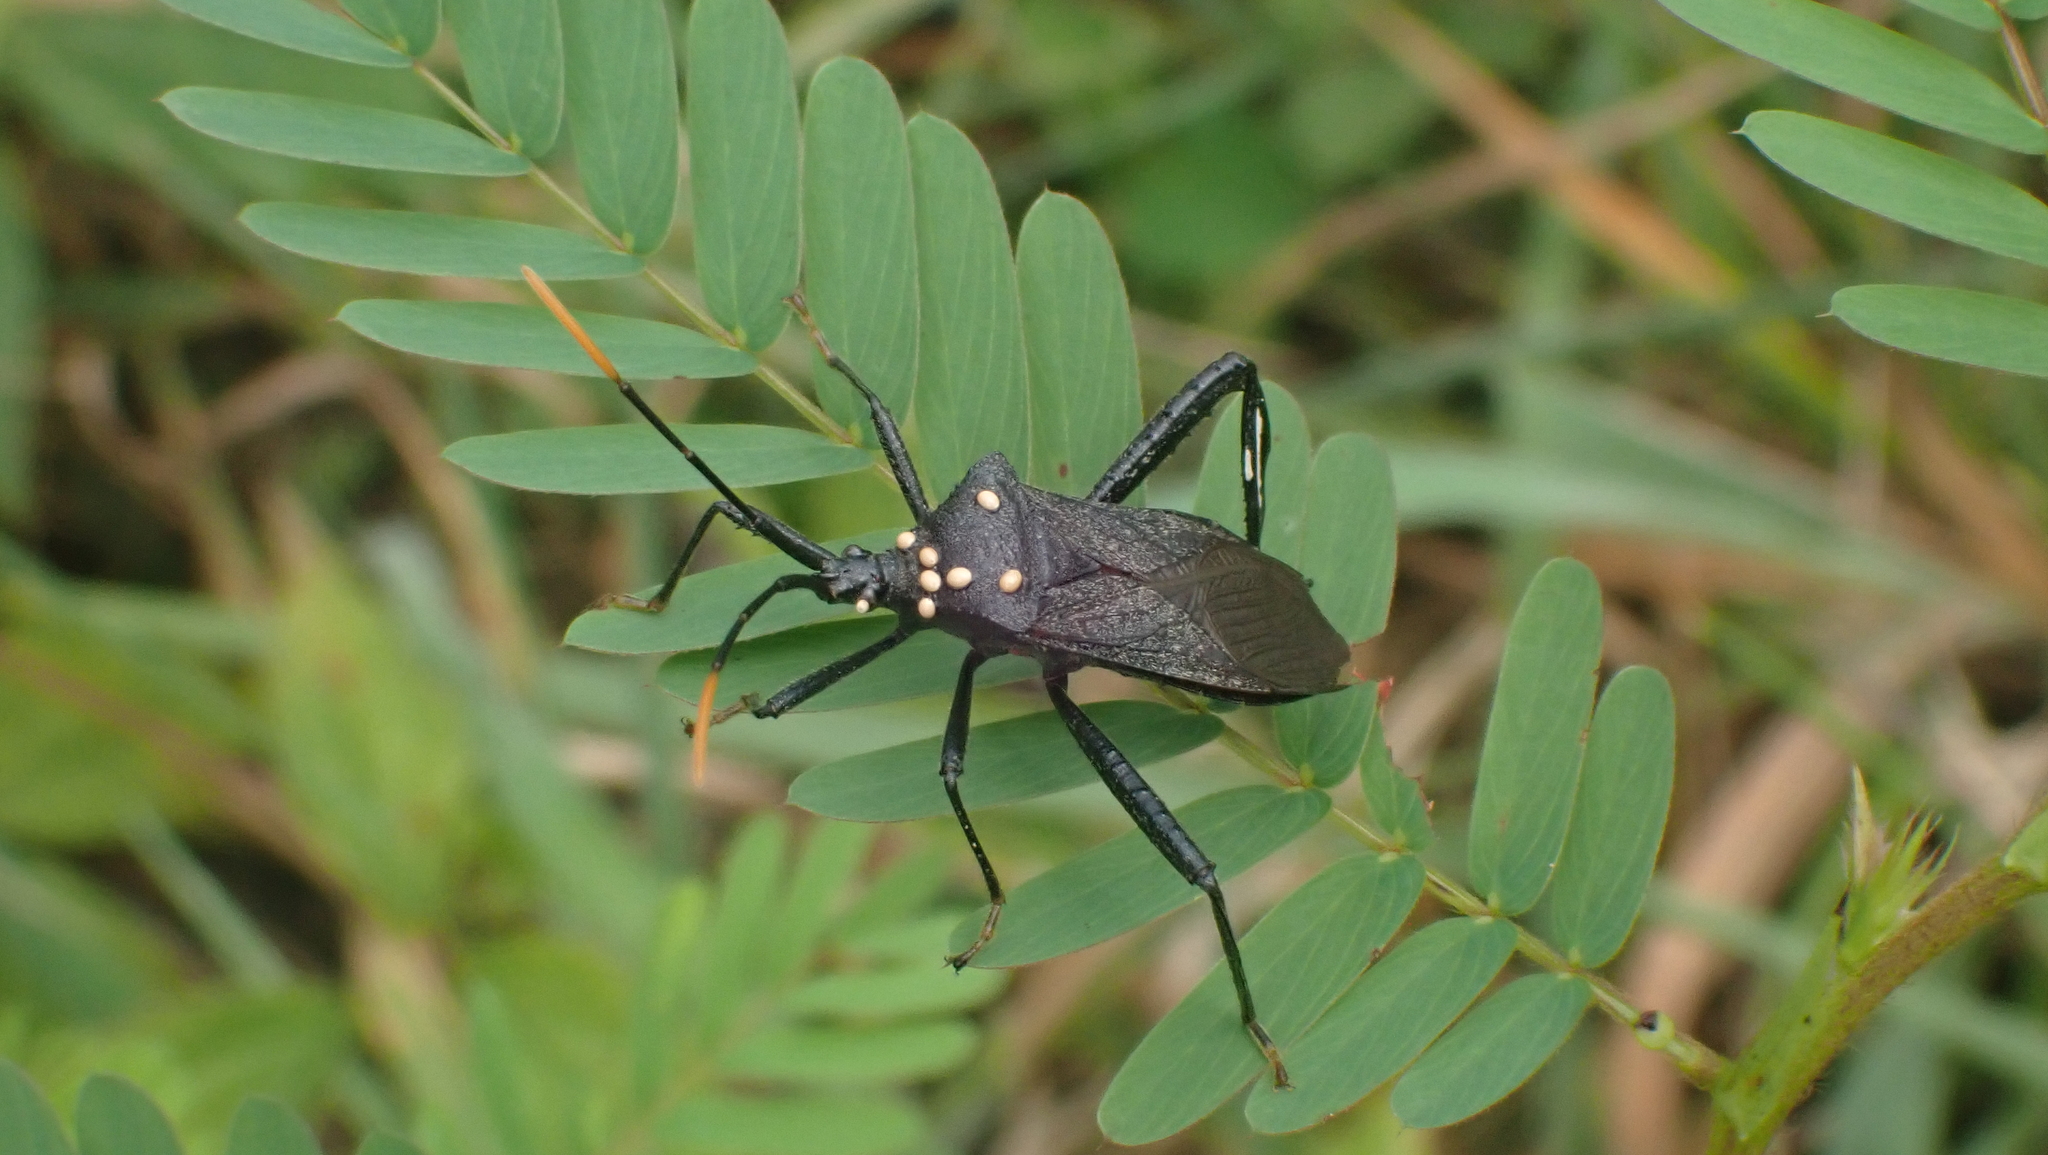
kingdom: Animalia
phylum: Arthropoda
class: Insecta
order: Hemiptera
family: Coreidae
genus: Acanthocephala
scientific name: Acanthocephala terminalis
